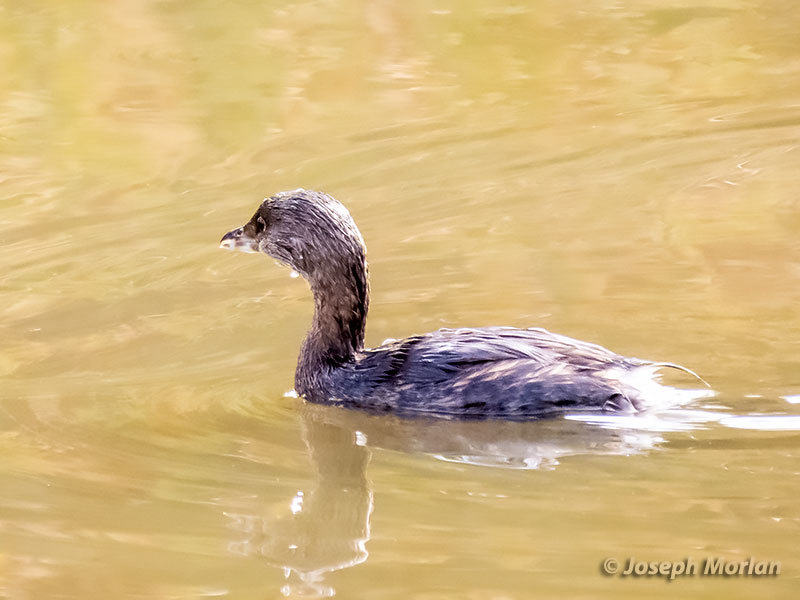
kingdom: Animalia
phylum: Chordata
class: Aves
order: Podicipediformes
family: Podicipedidae
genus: Podilymbus
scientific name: Podilymbus podiceps
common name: Pied-billed grebe
